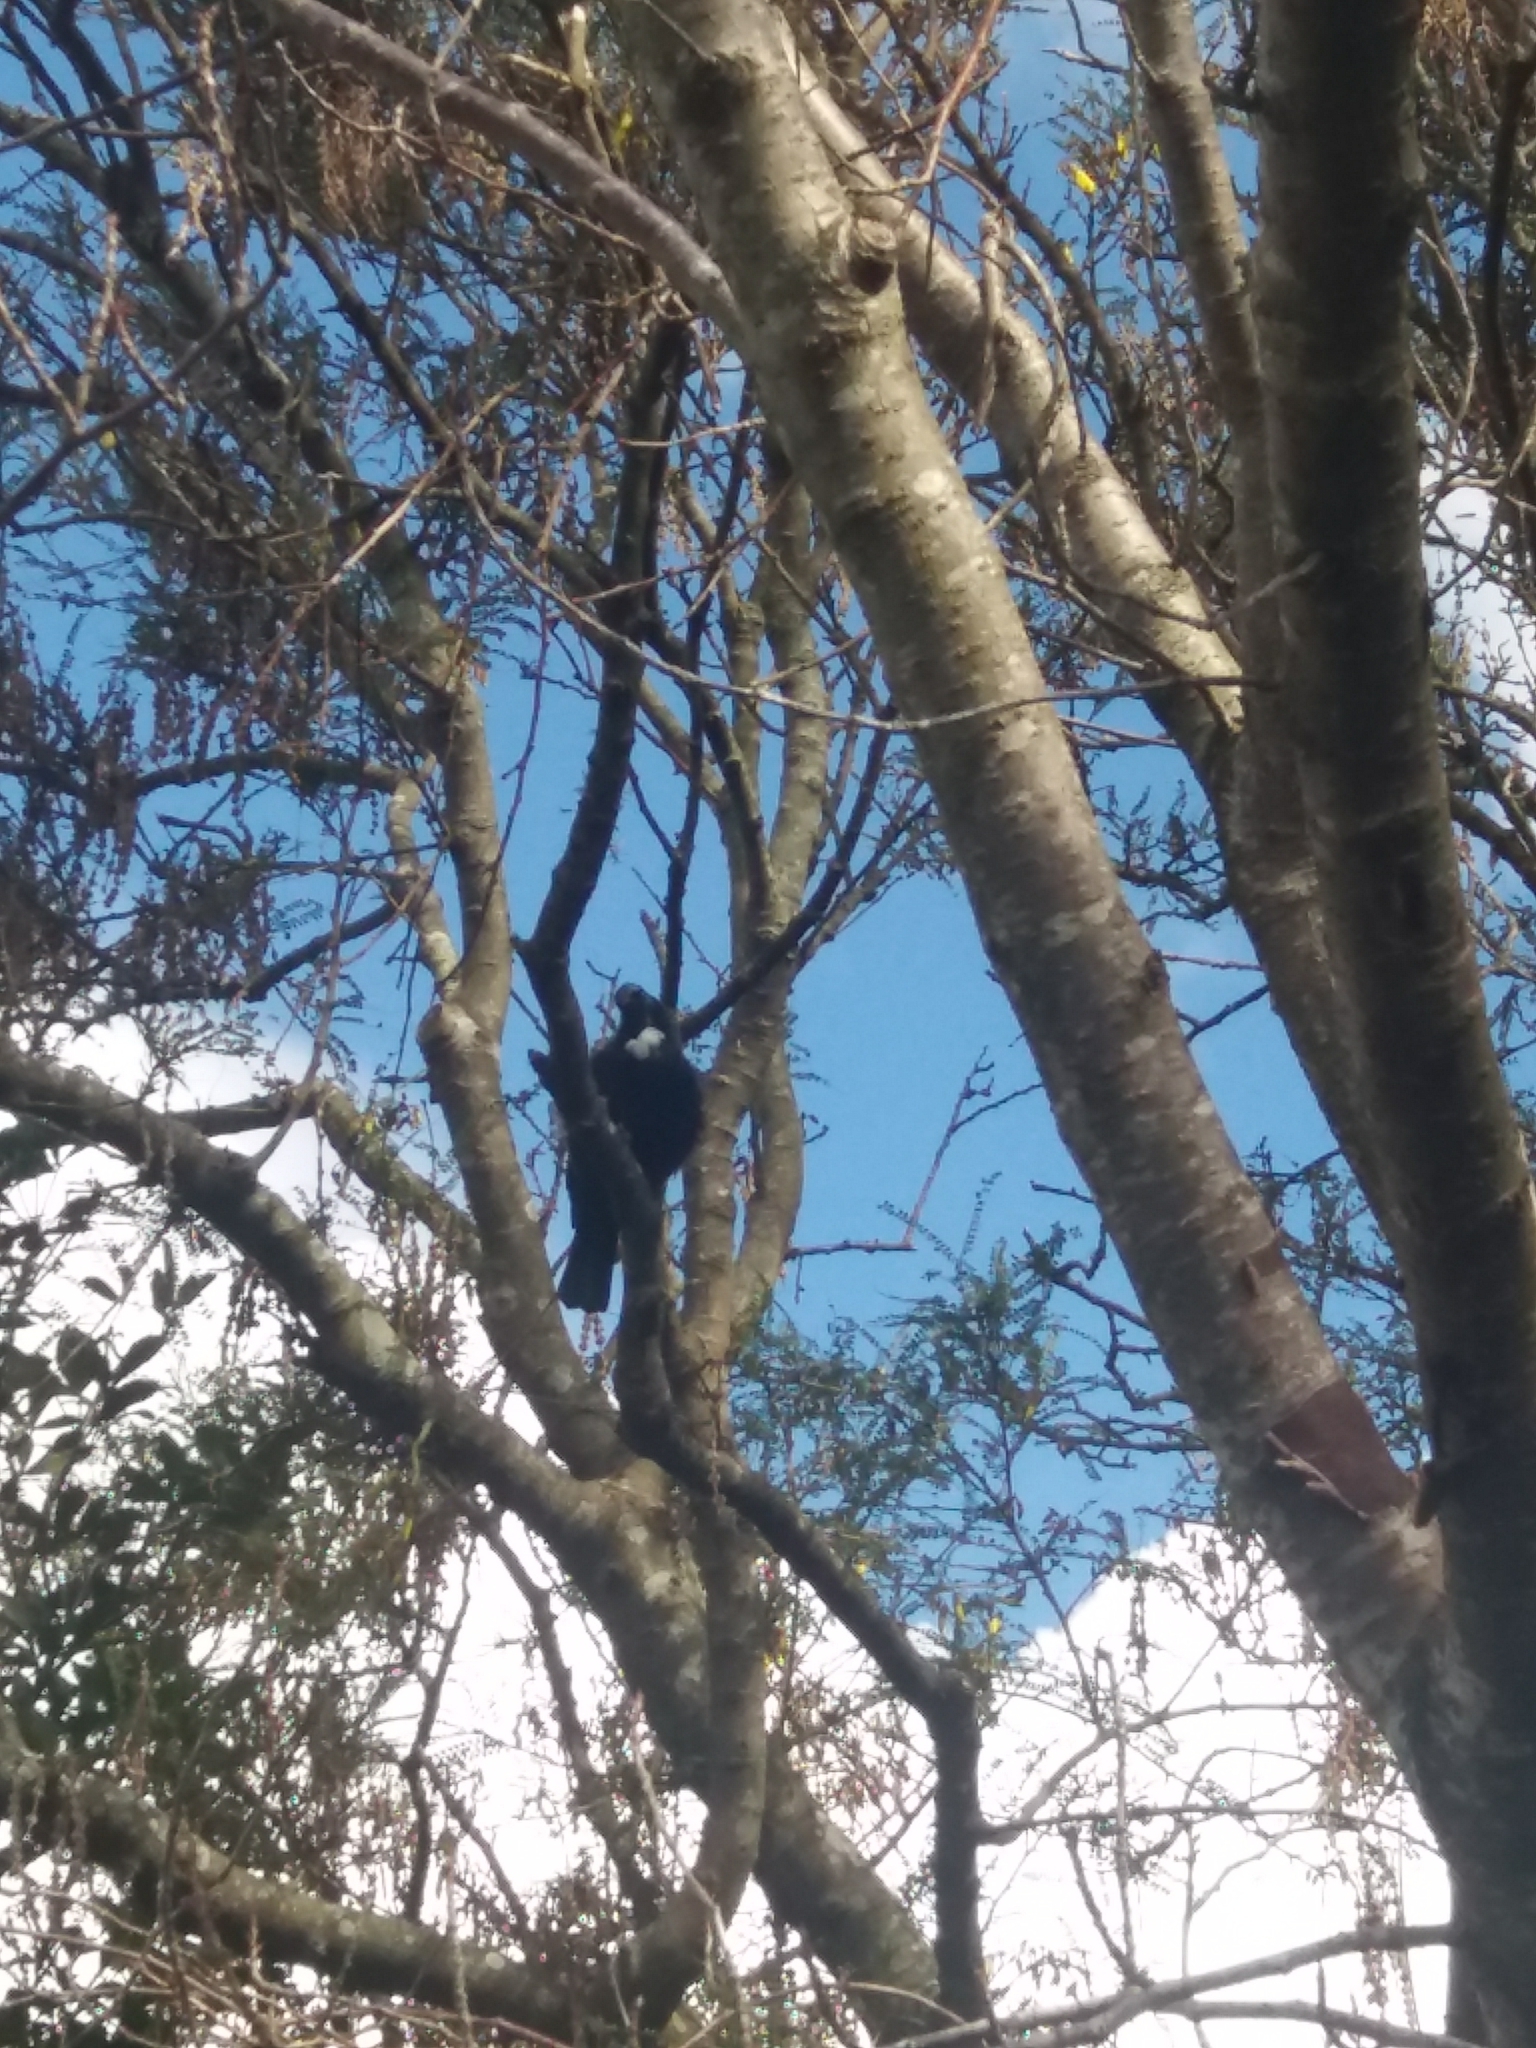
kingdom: Animalia
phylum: Chordata
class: Aves
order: Passeriformes
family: Meliphagidae
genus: Prosthemadera
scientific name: Prosthemadera novaeseelandiae
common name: Tui
